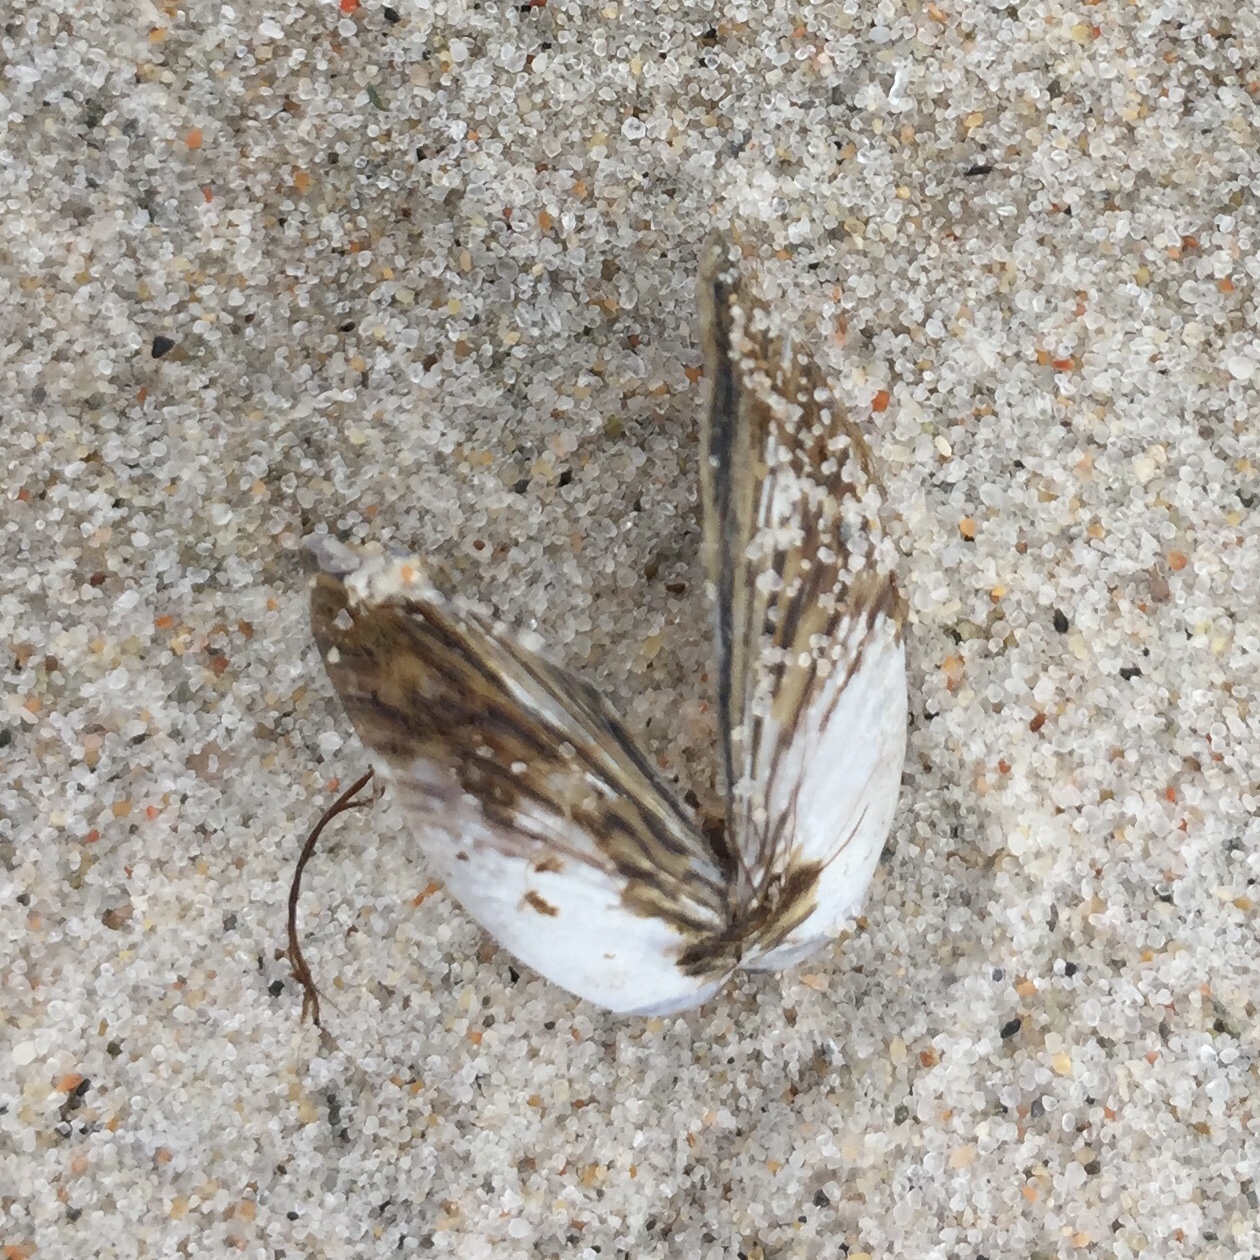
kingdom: Animalia
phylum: Mollusca
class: Bivalvia
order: Myida
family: Dreissenidae
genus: Dreissena
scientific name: Dreissena polymorpha
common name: Zebra mussel
